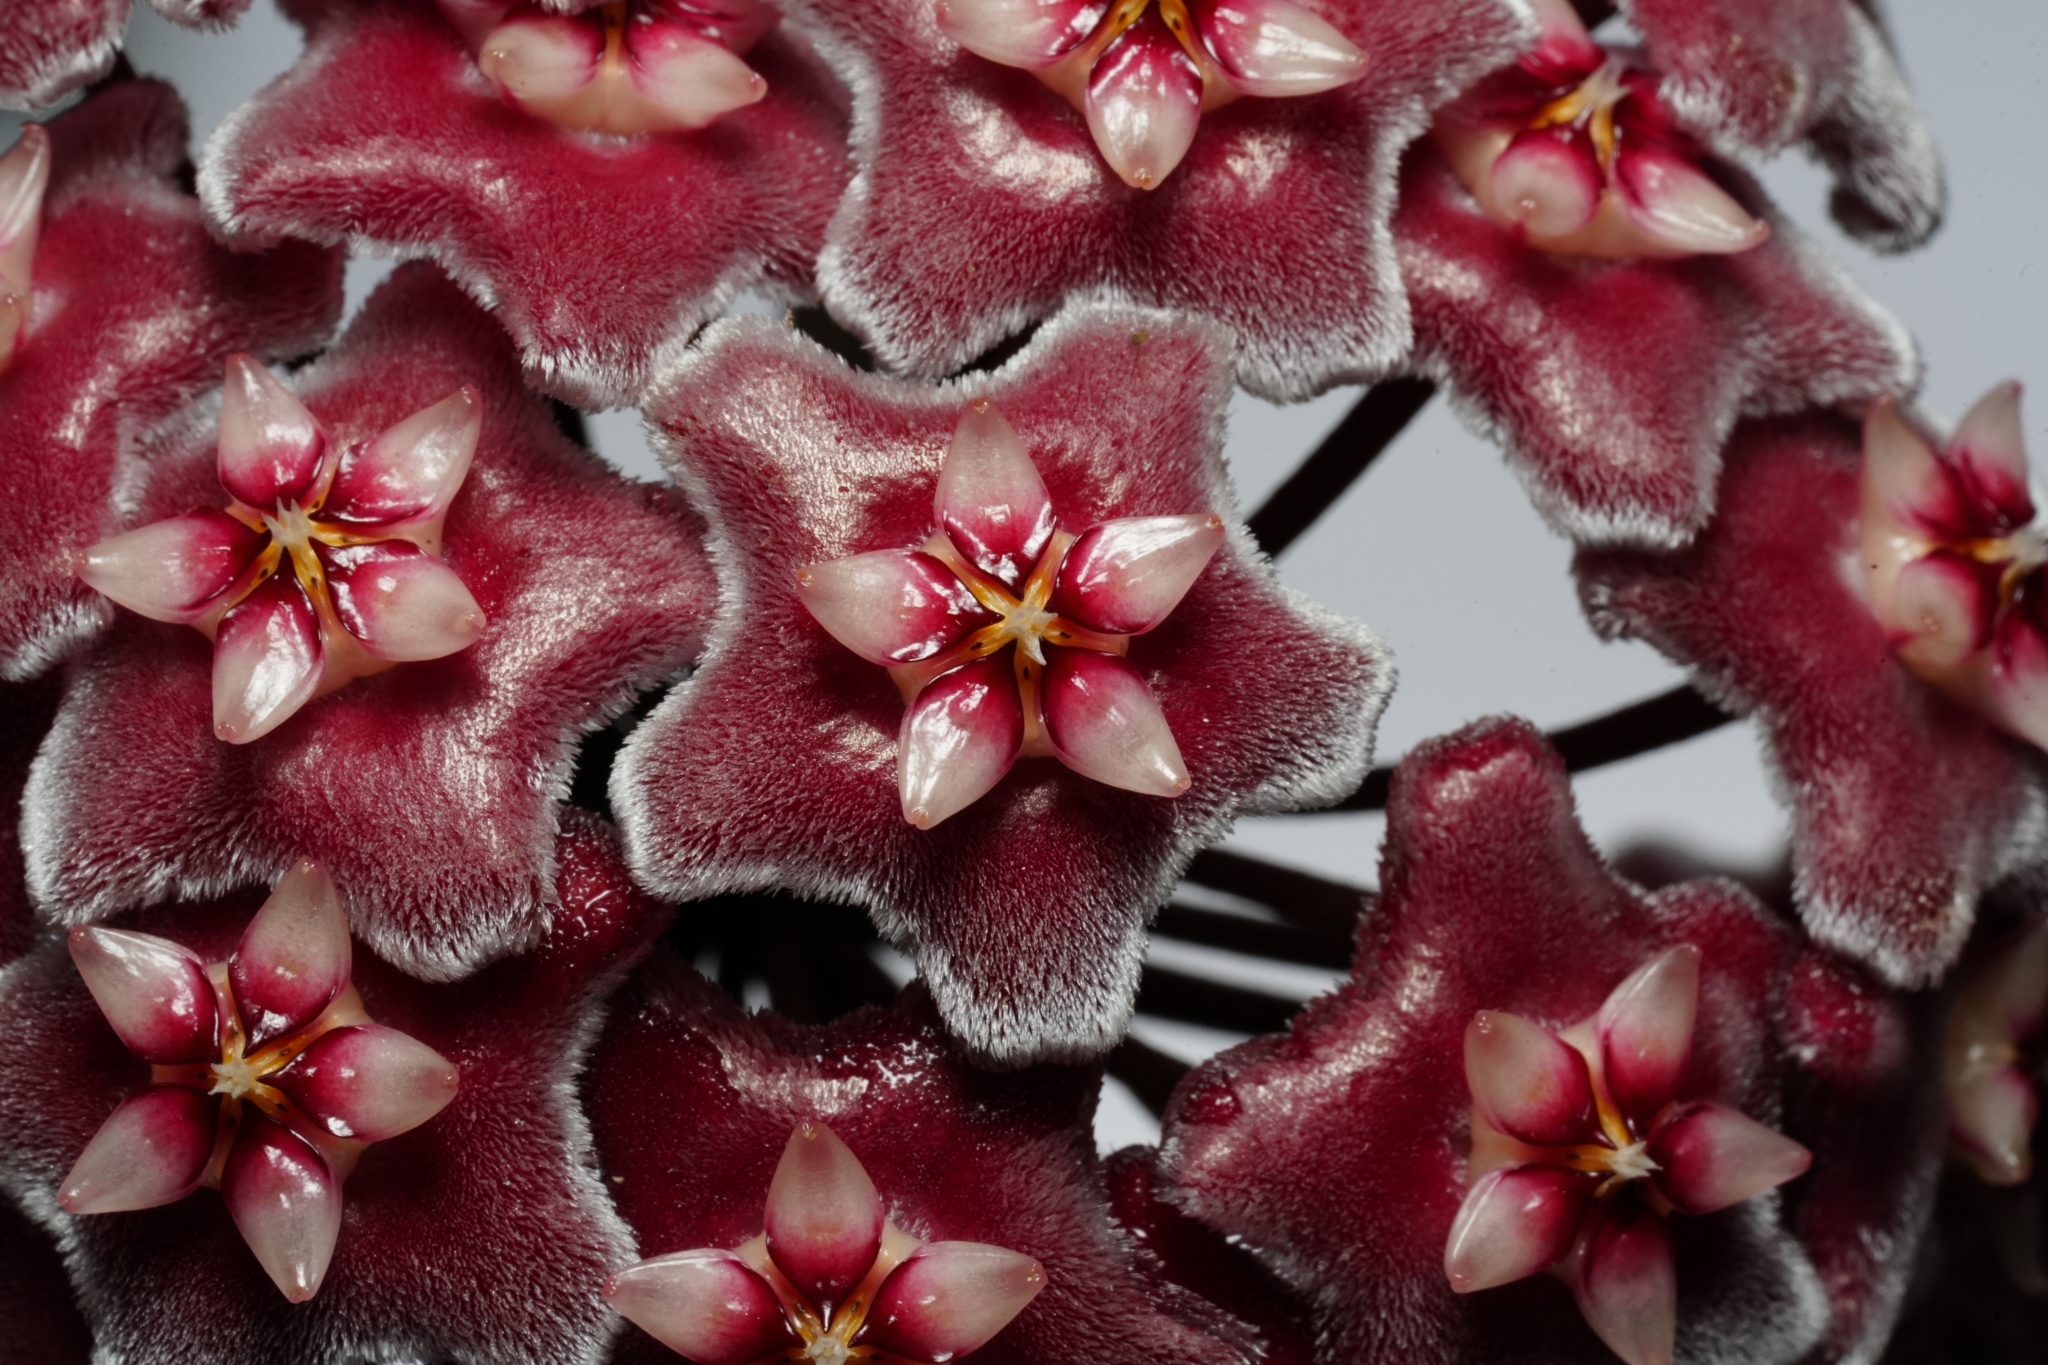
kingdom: Plantae
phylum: Tracheophyta
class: Magnoliopsida
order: Gentianales
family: Apocynaceae
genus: Hoya
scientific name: Hoya pubicalyx
